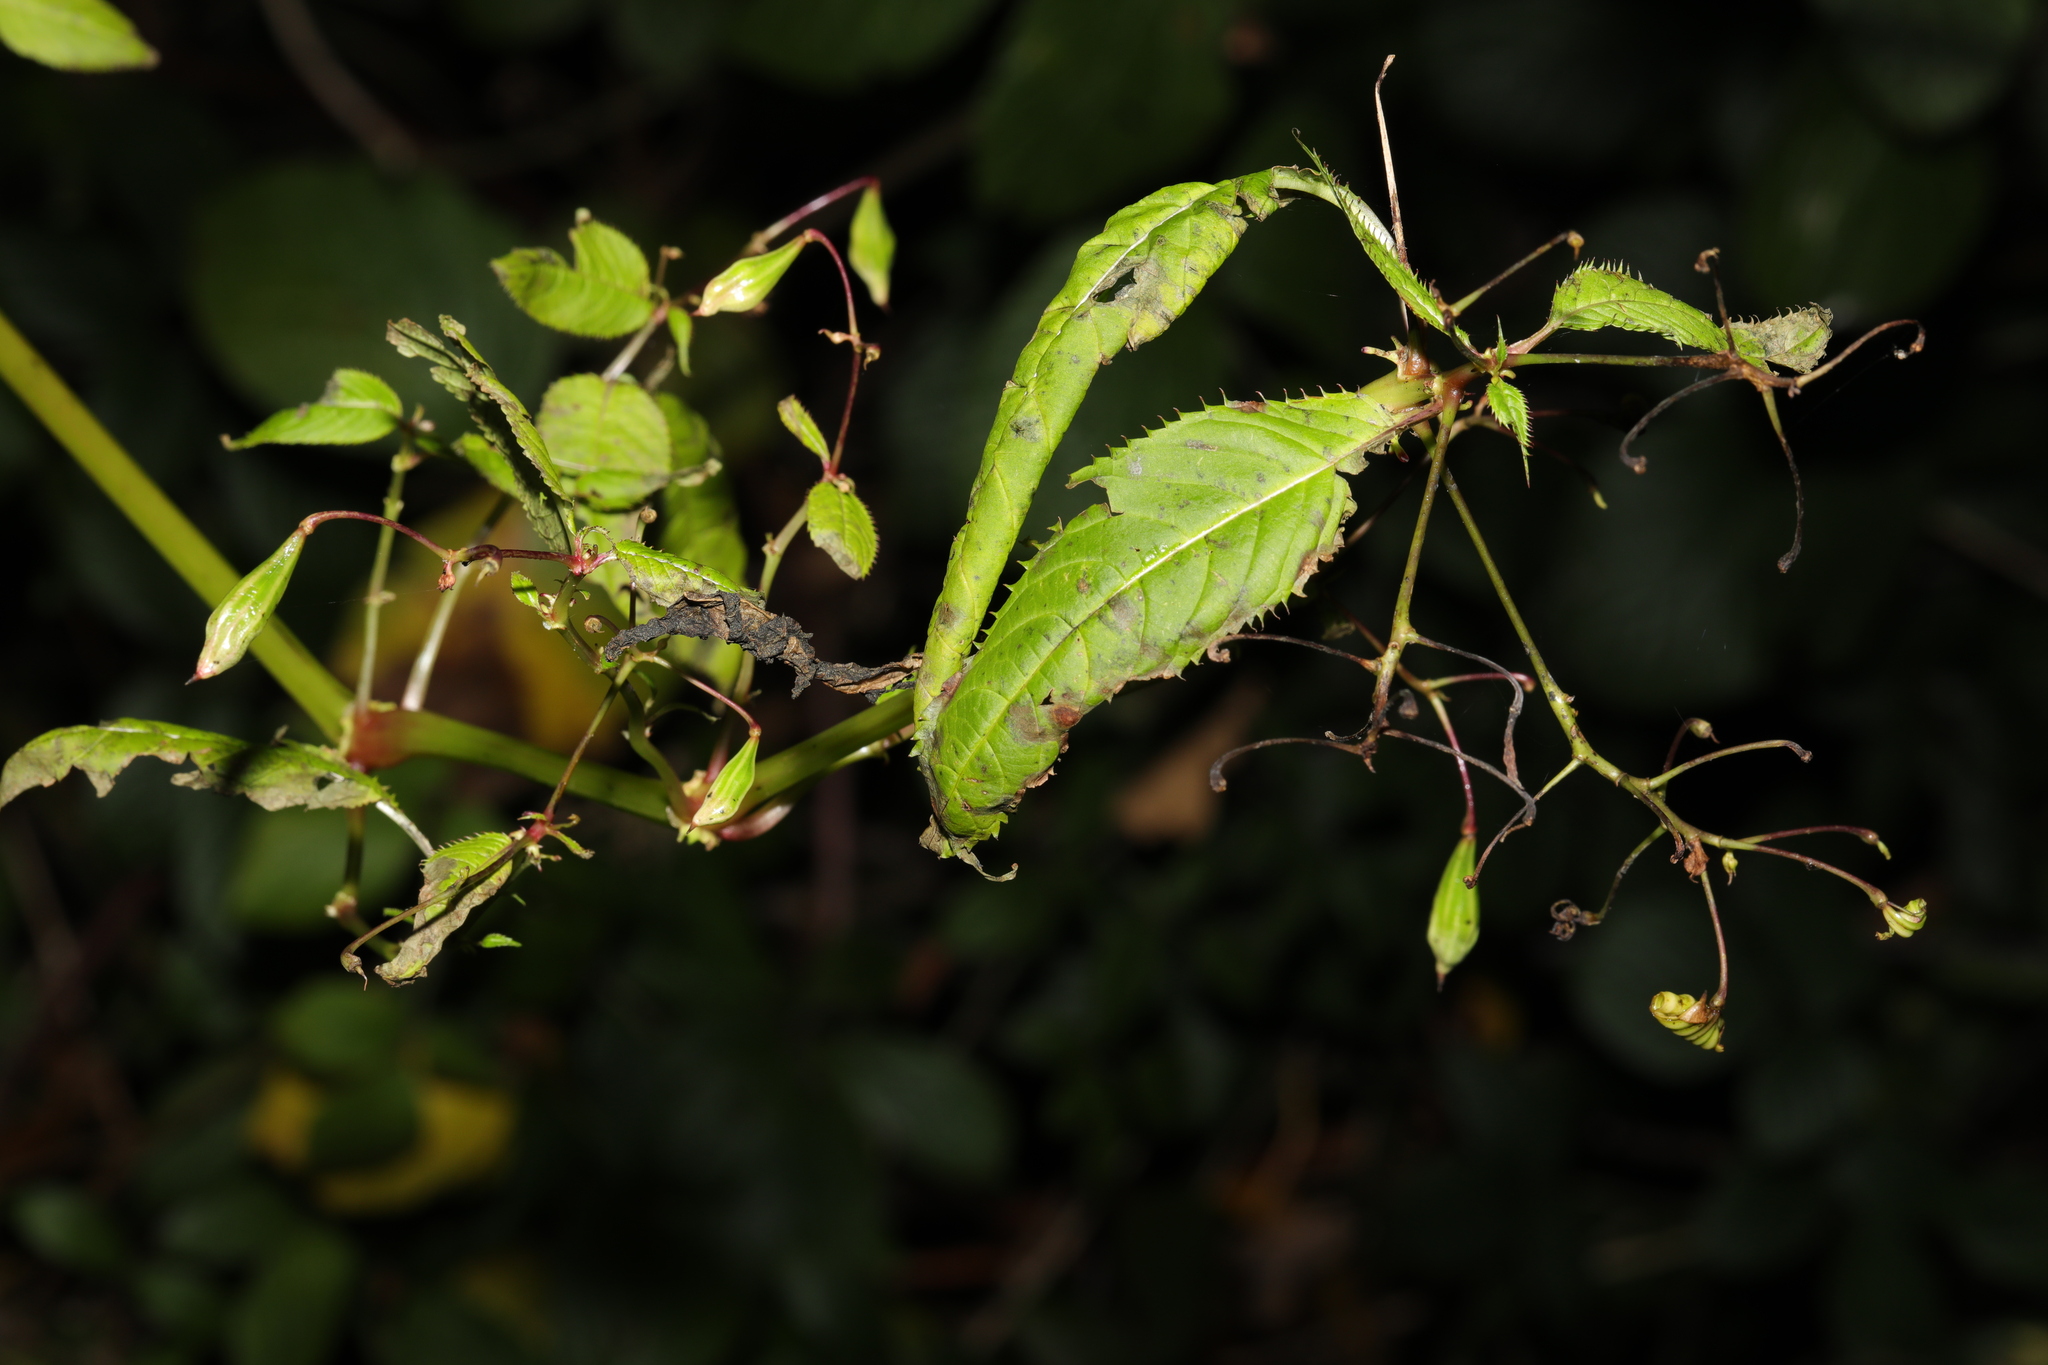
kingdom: Plantae
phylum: Tracheophyta
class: Magnoliopsida
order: Ericales
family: Balsaminaceae
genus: Impatiens
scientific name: Impatiens glandulifera
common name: Himalayan balsam
